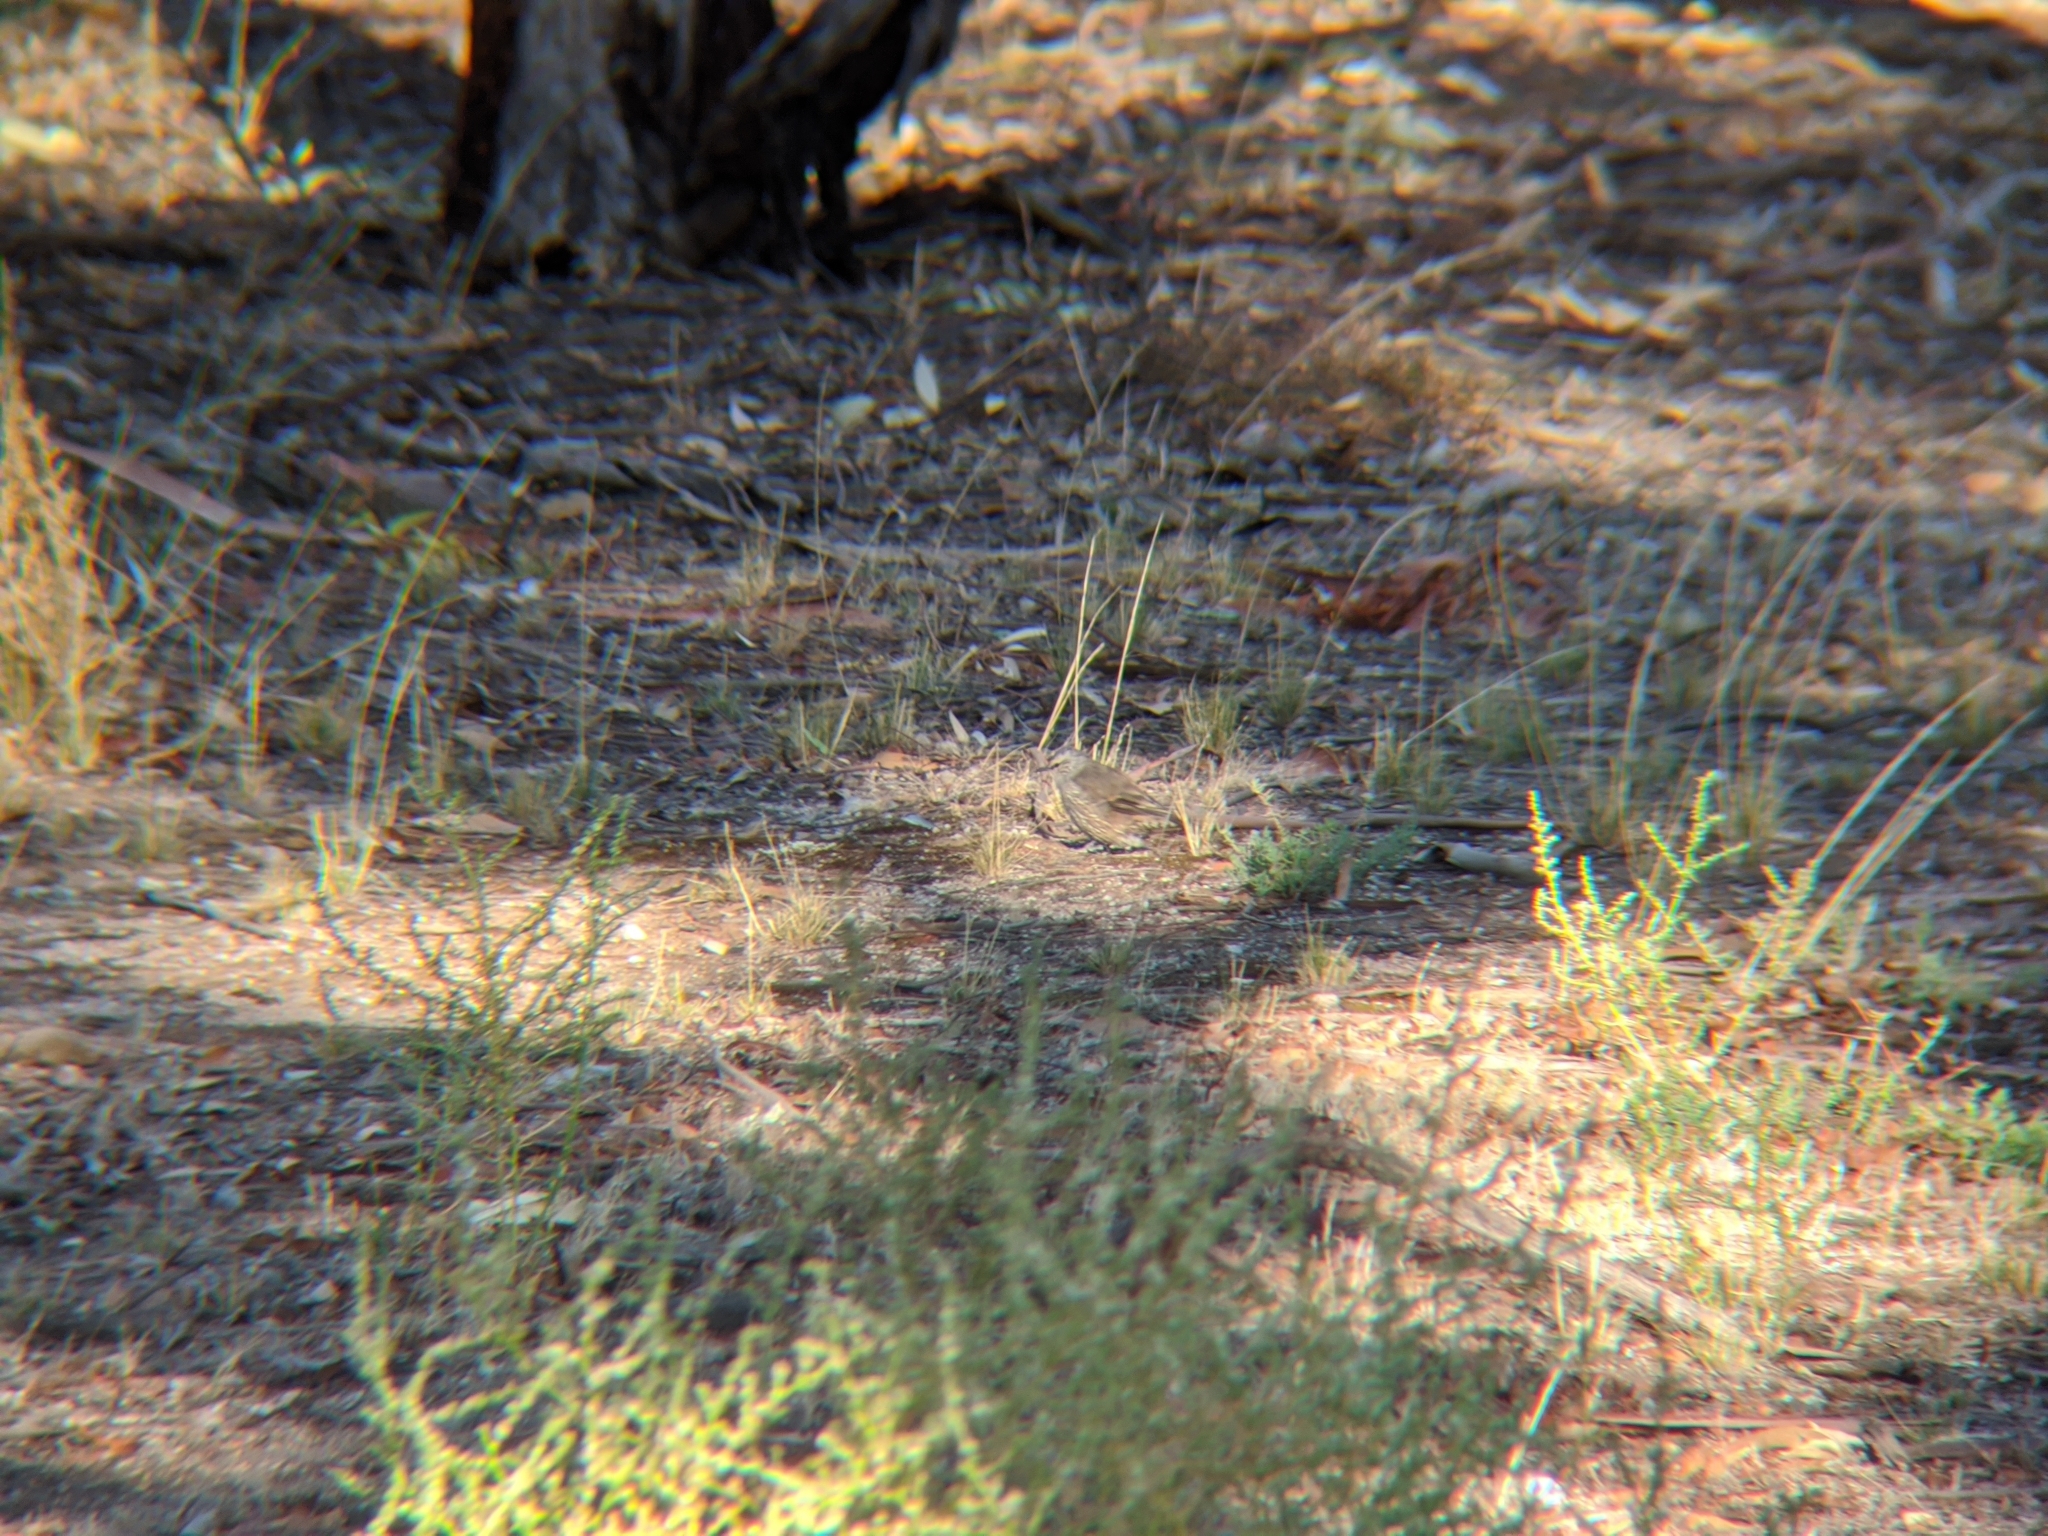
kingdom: Animalia
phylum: Chordata
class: Aves
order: Passeriformes
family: Climacteridae
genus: Climacteris
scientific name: Climacteris picumnus
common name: Brown treecreeper
